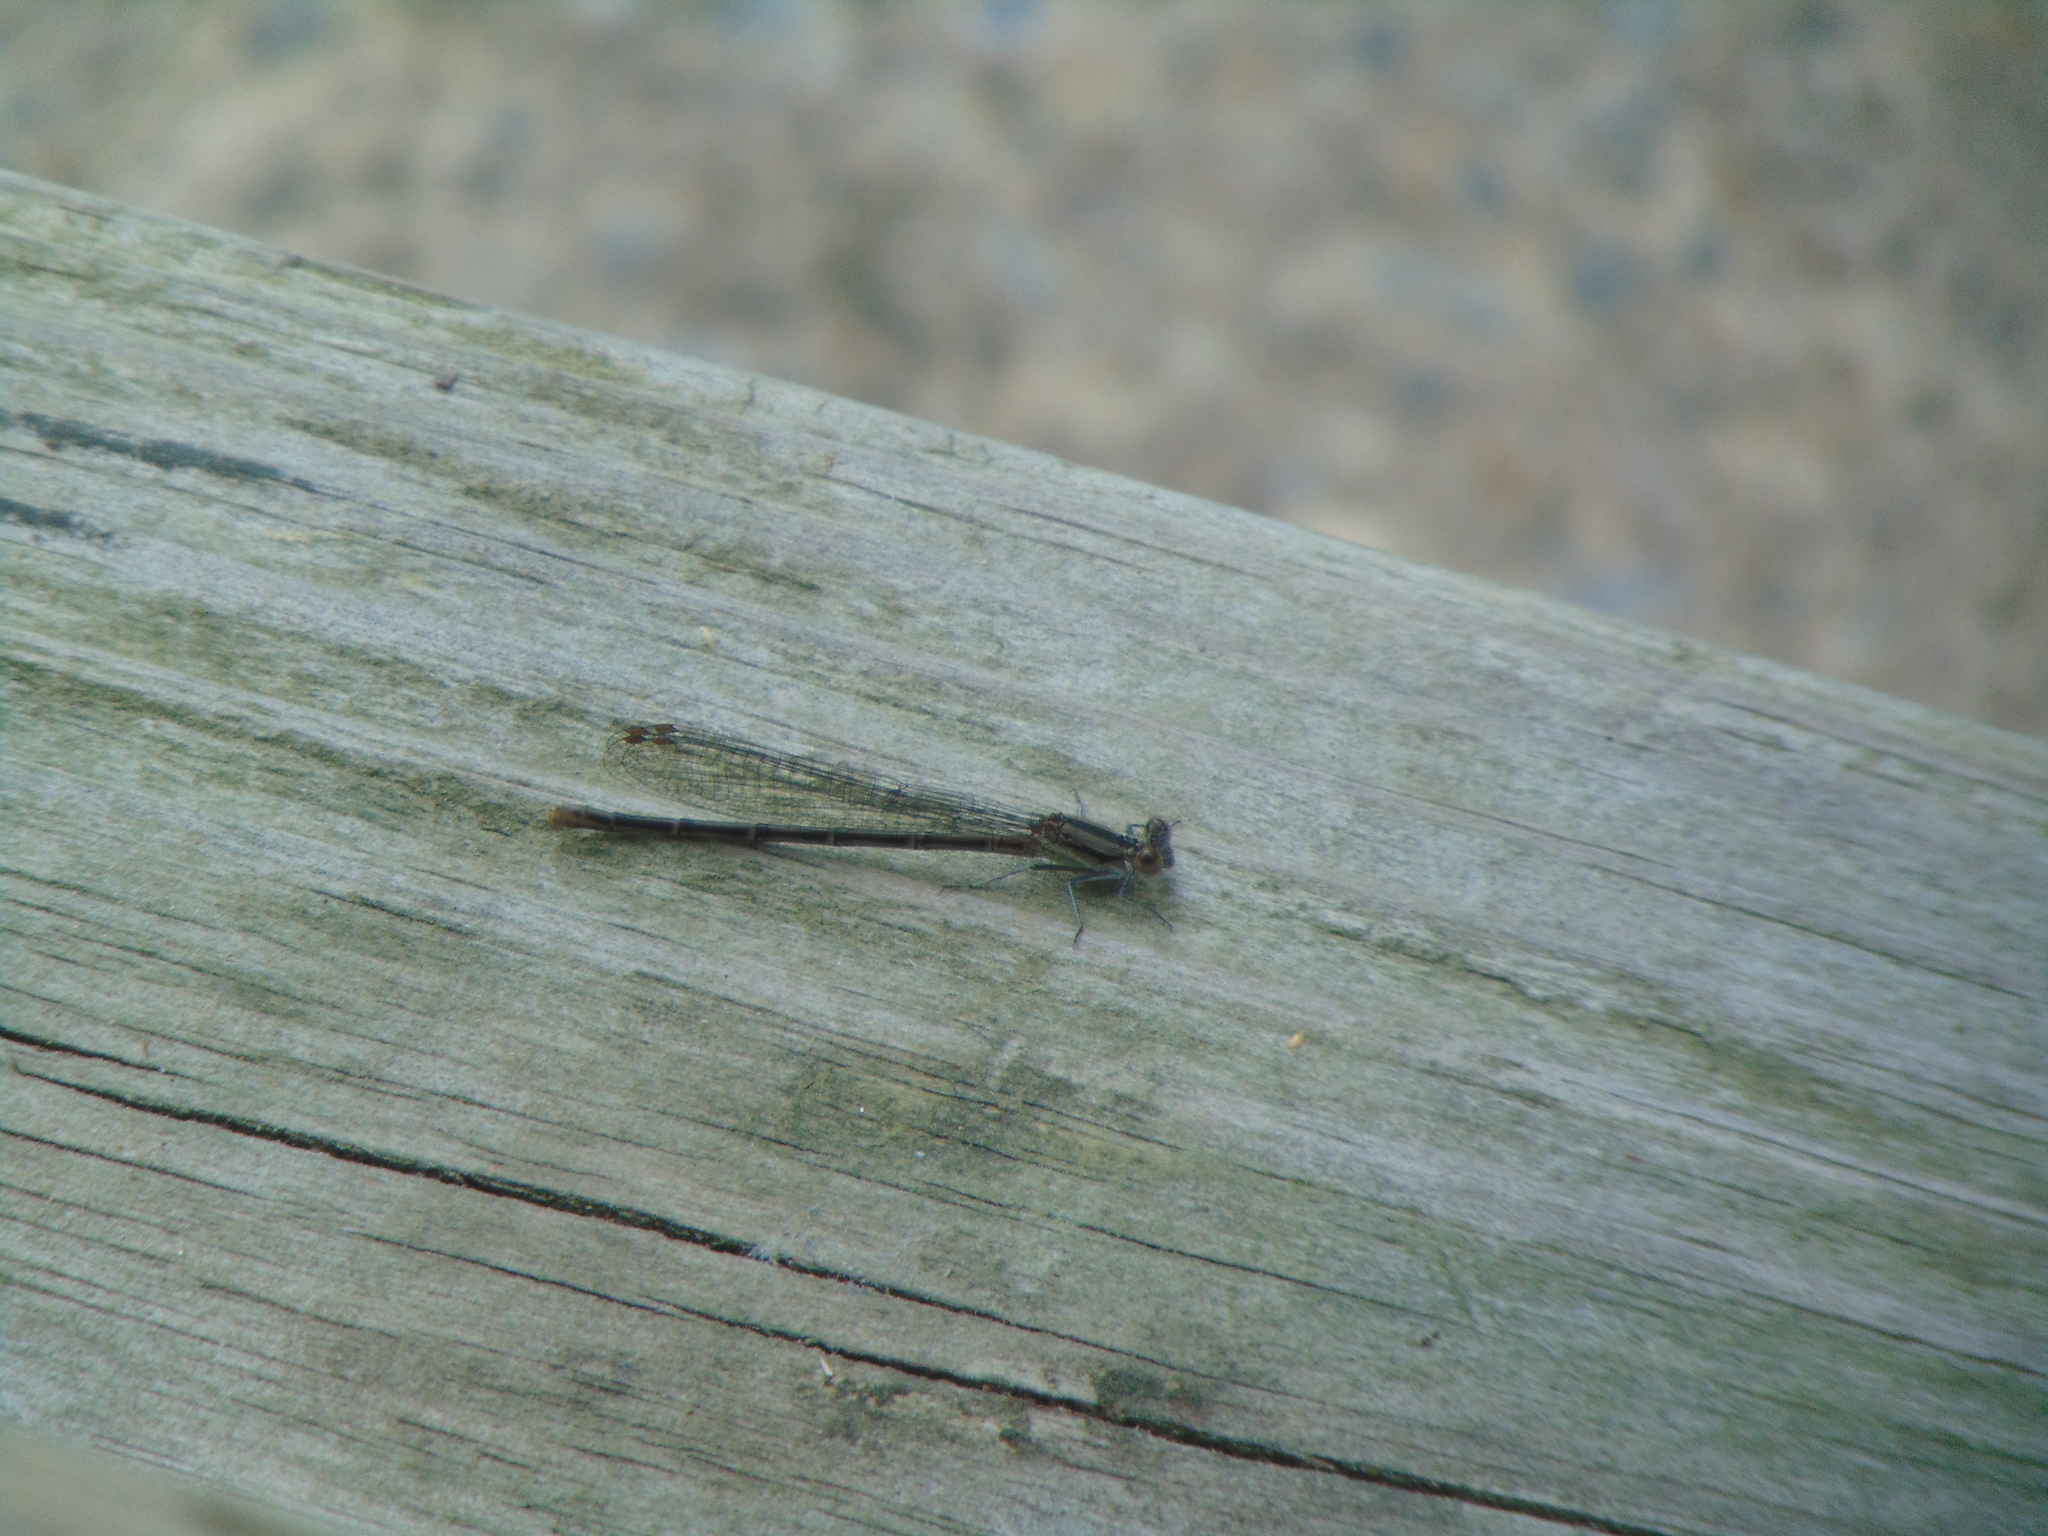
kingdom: Animalia
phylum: Arthropoda
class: Insecta
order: Odonata
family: Coenagrionidae
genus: Argia
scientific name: Argia fumipennis
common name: Variable dancer
